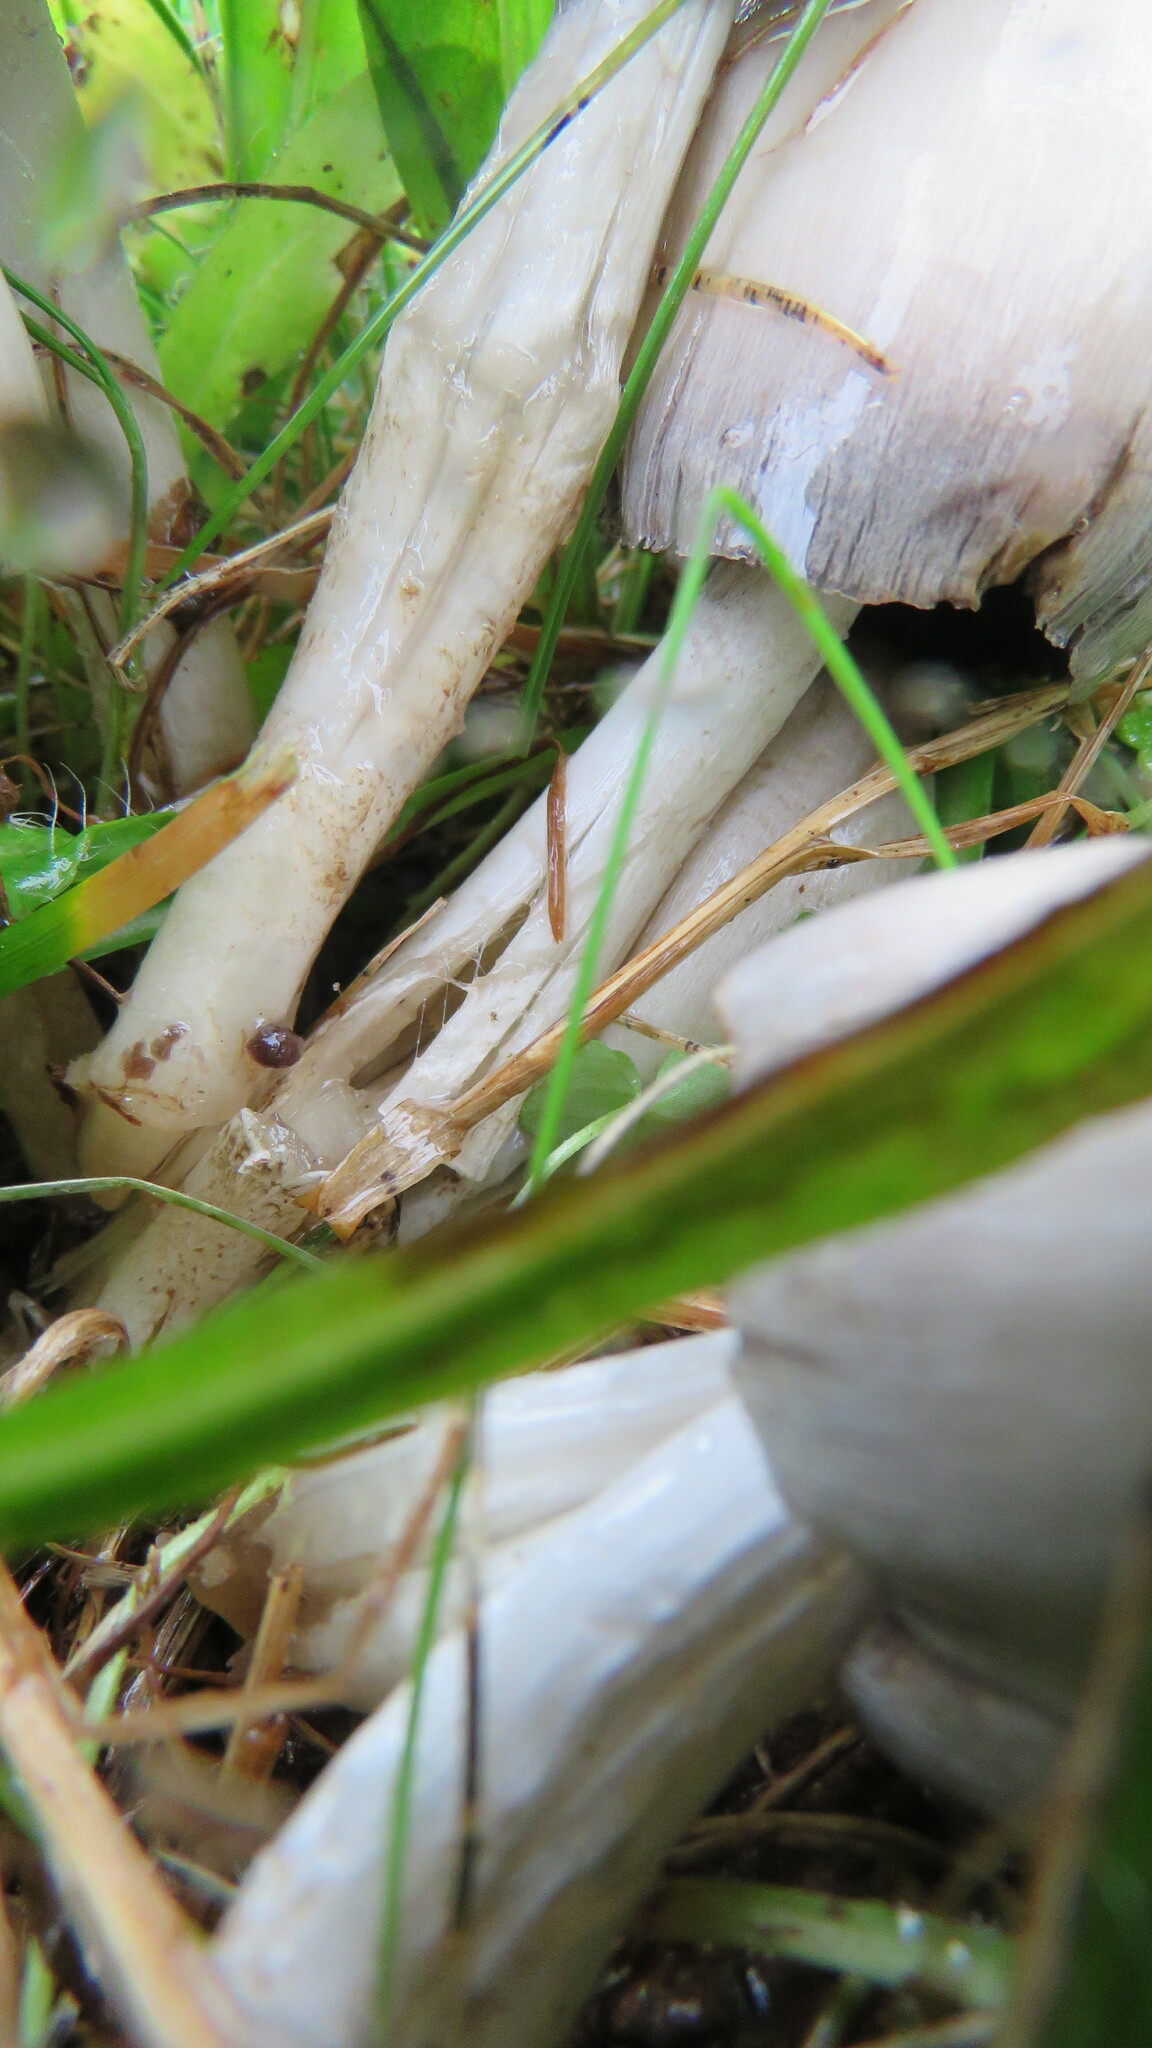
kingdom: Fungi
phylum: Basidiomycota
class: Agaricomycetes
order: Agaricales
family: Psathyrellaceae
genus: Coprinopsis
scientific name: Coprinopsis atramentaria
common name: Common ink-cap
